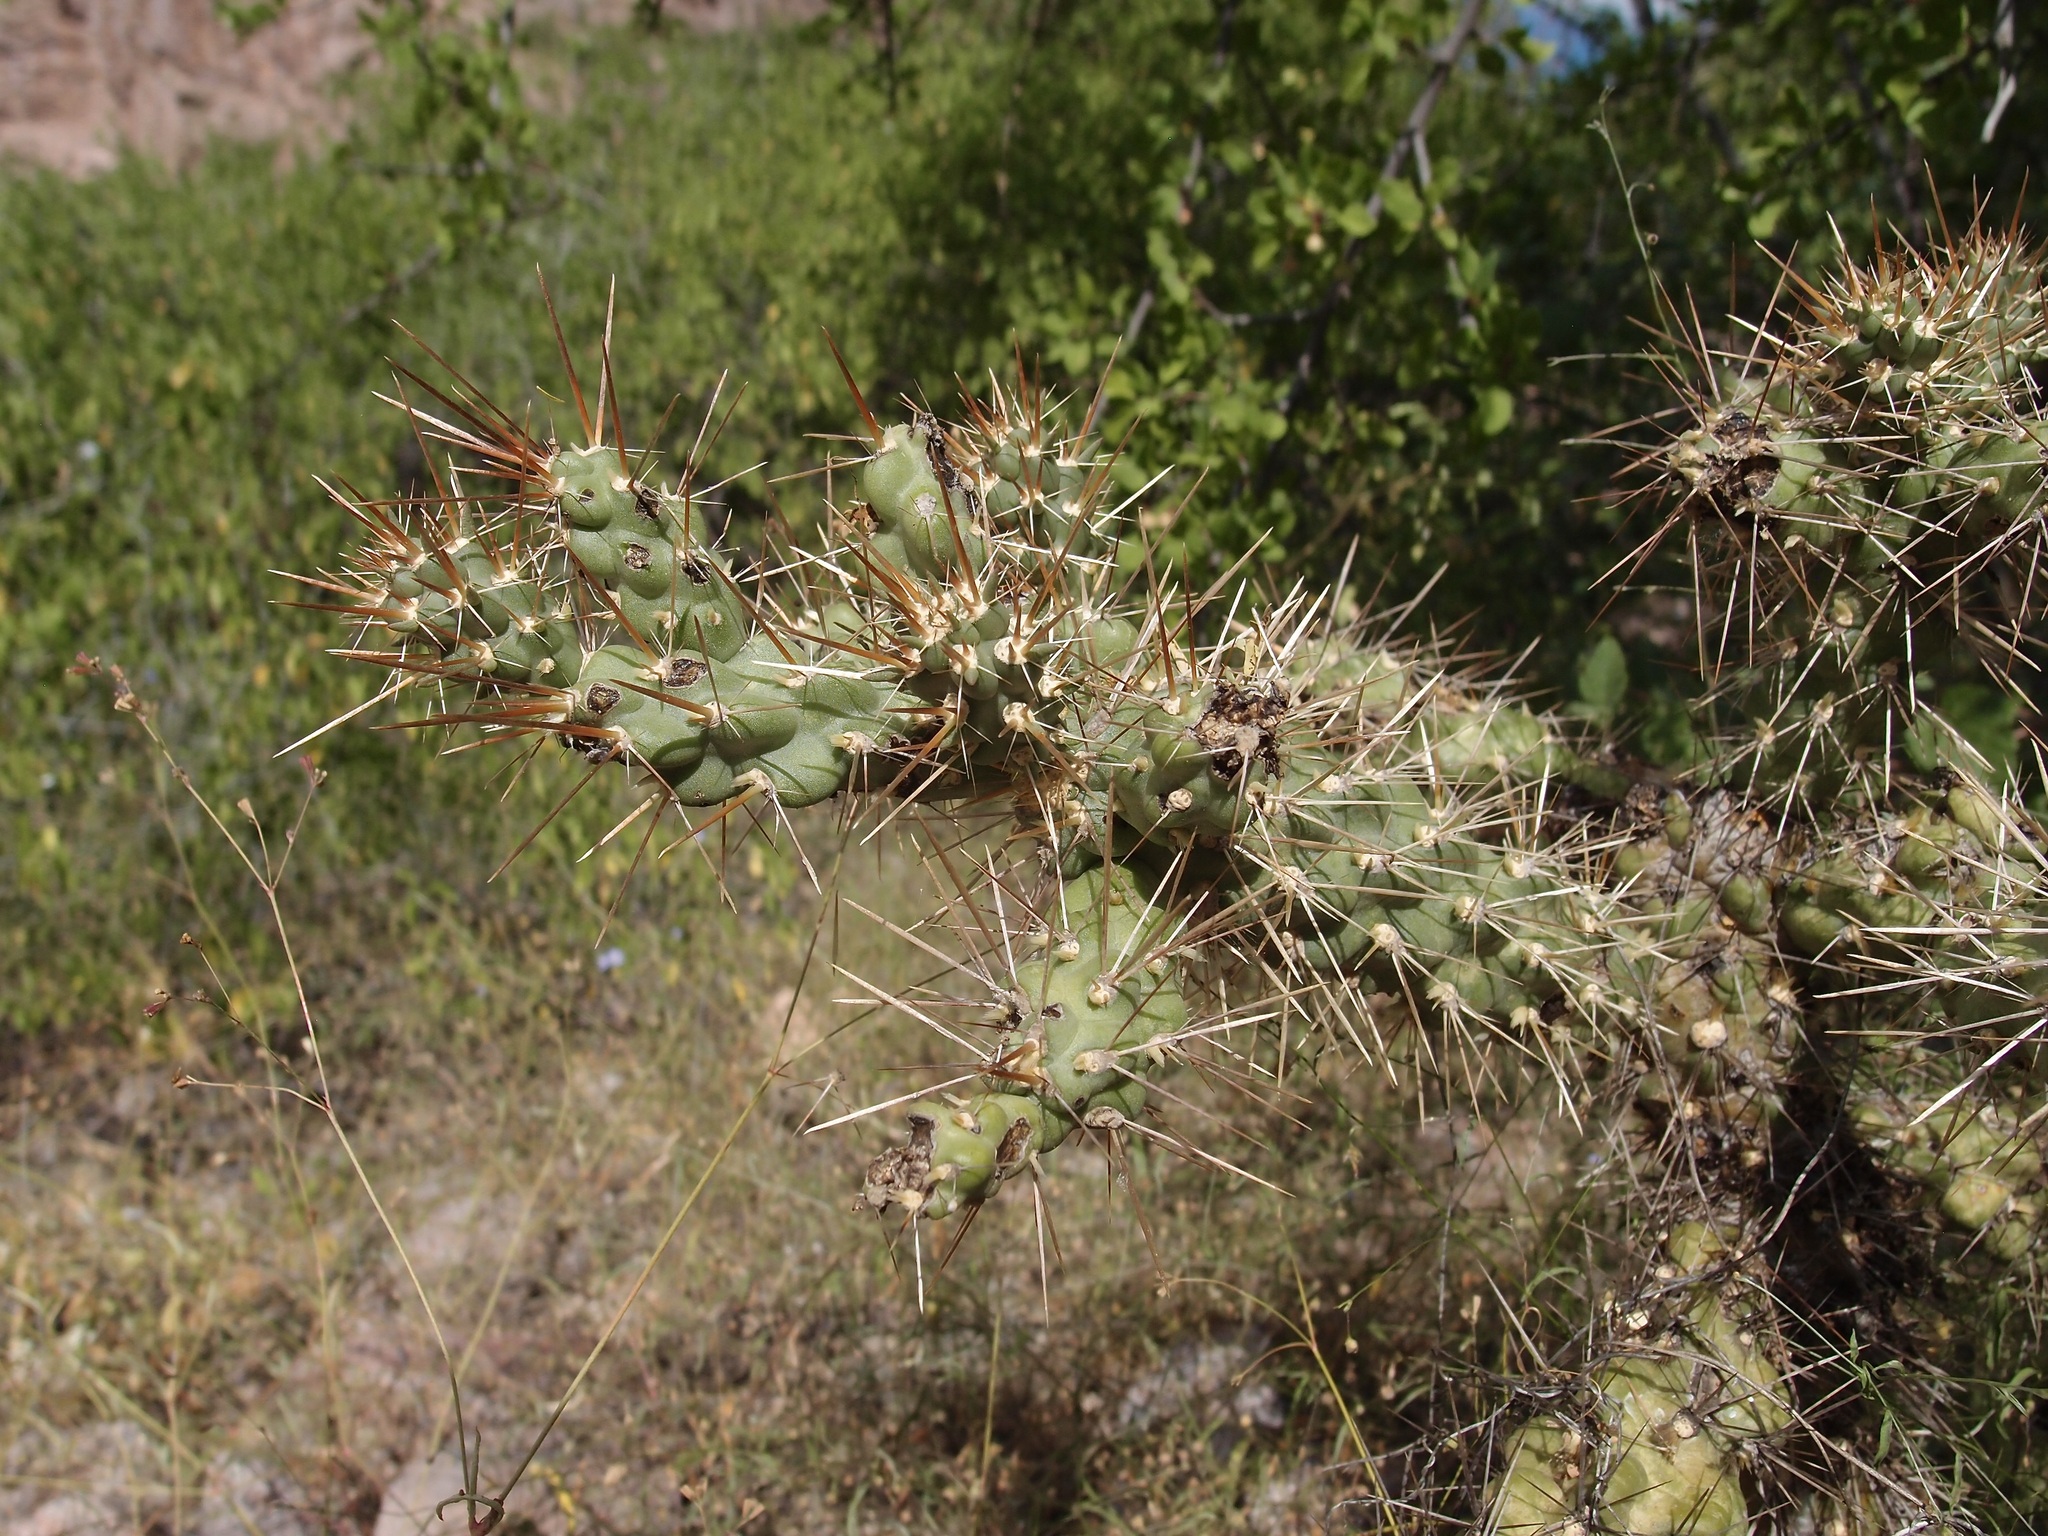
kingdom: Plantae
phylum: Tracheophyta
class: Magnoliopsida
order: Caryophyllales
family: Cactaceae
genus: Cylindropuntia
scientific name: Cylindropuntia fulgida
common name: Jumping cholla
